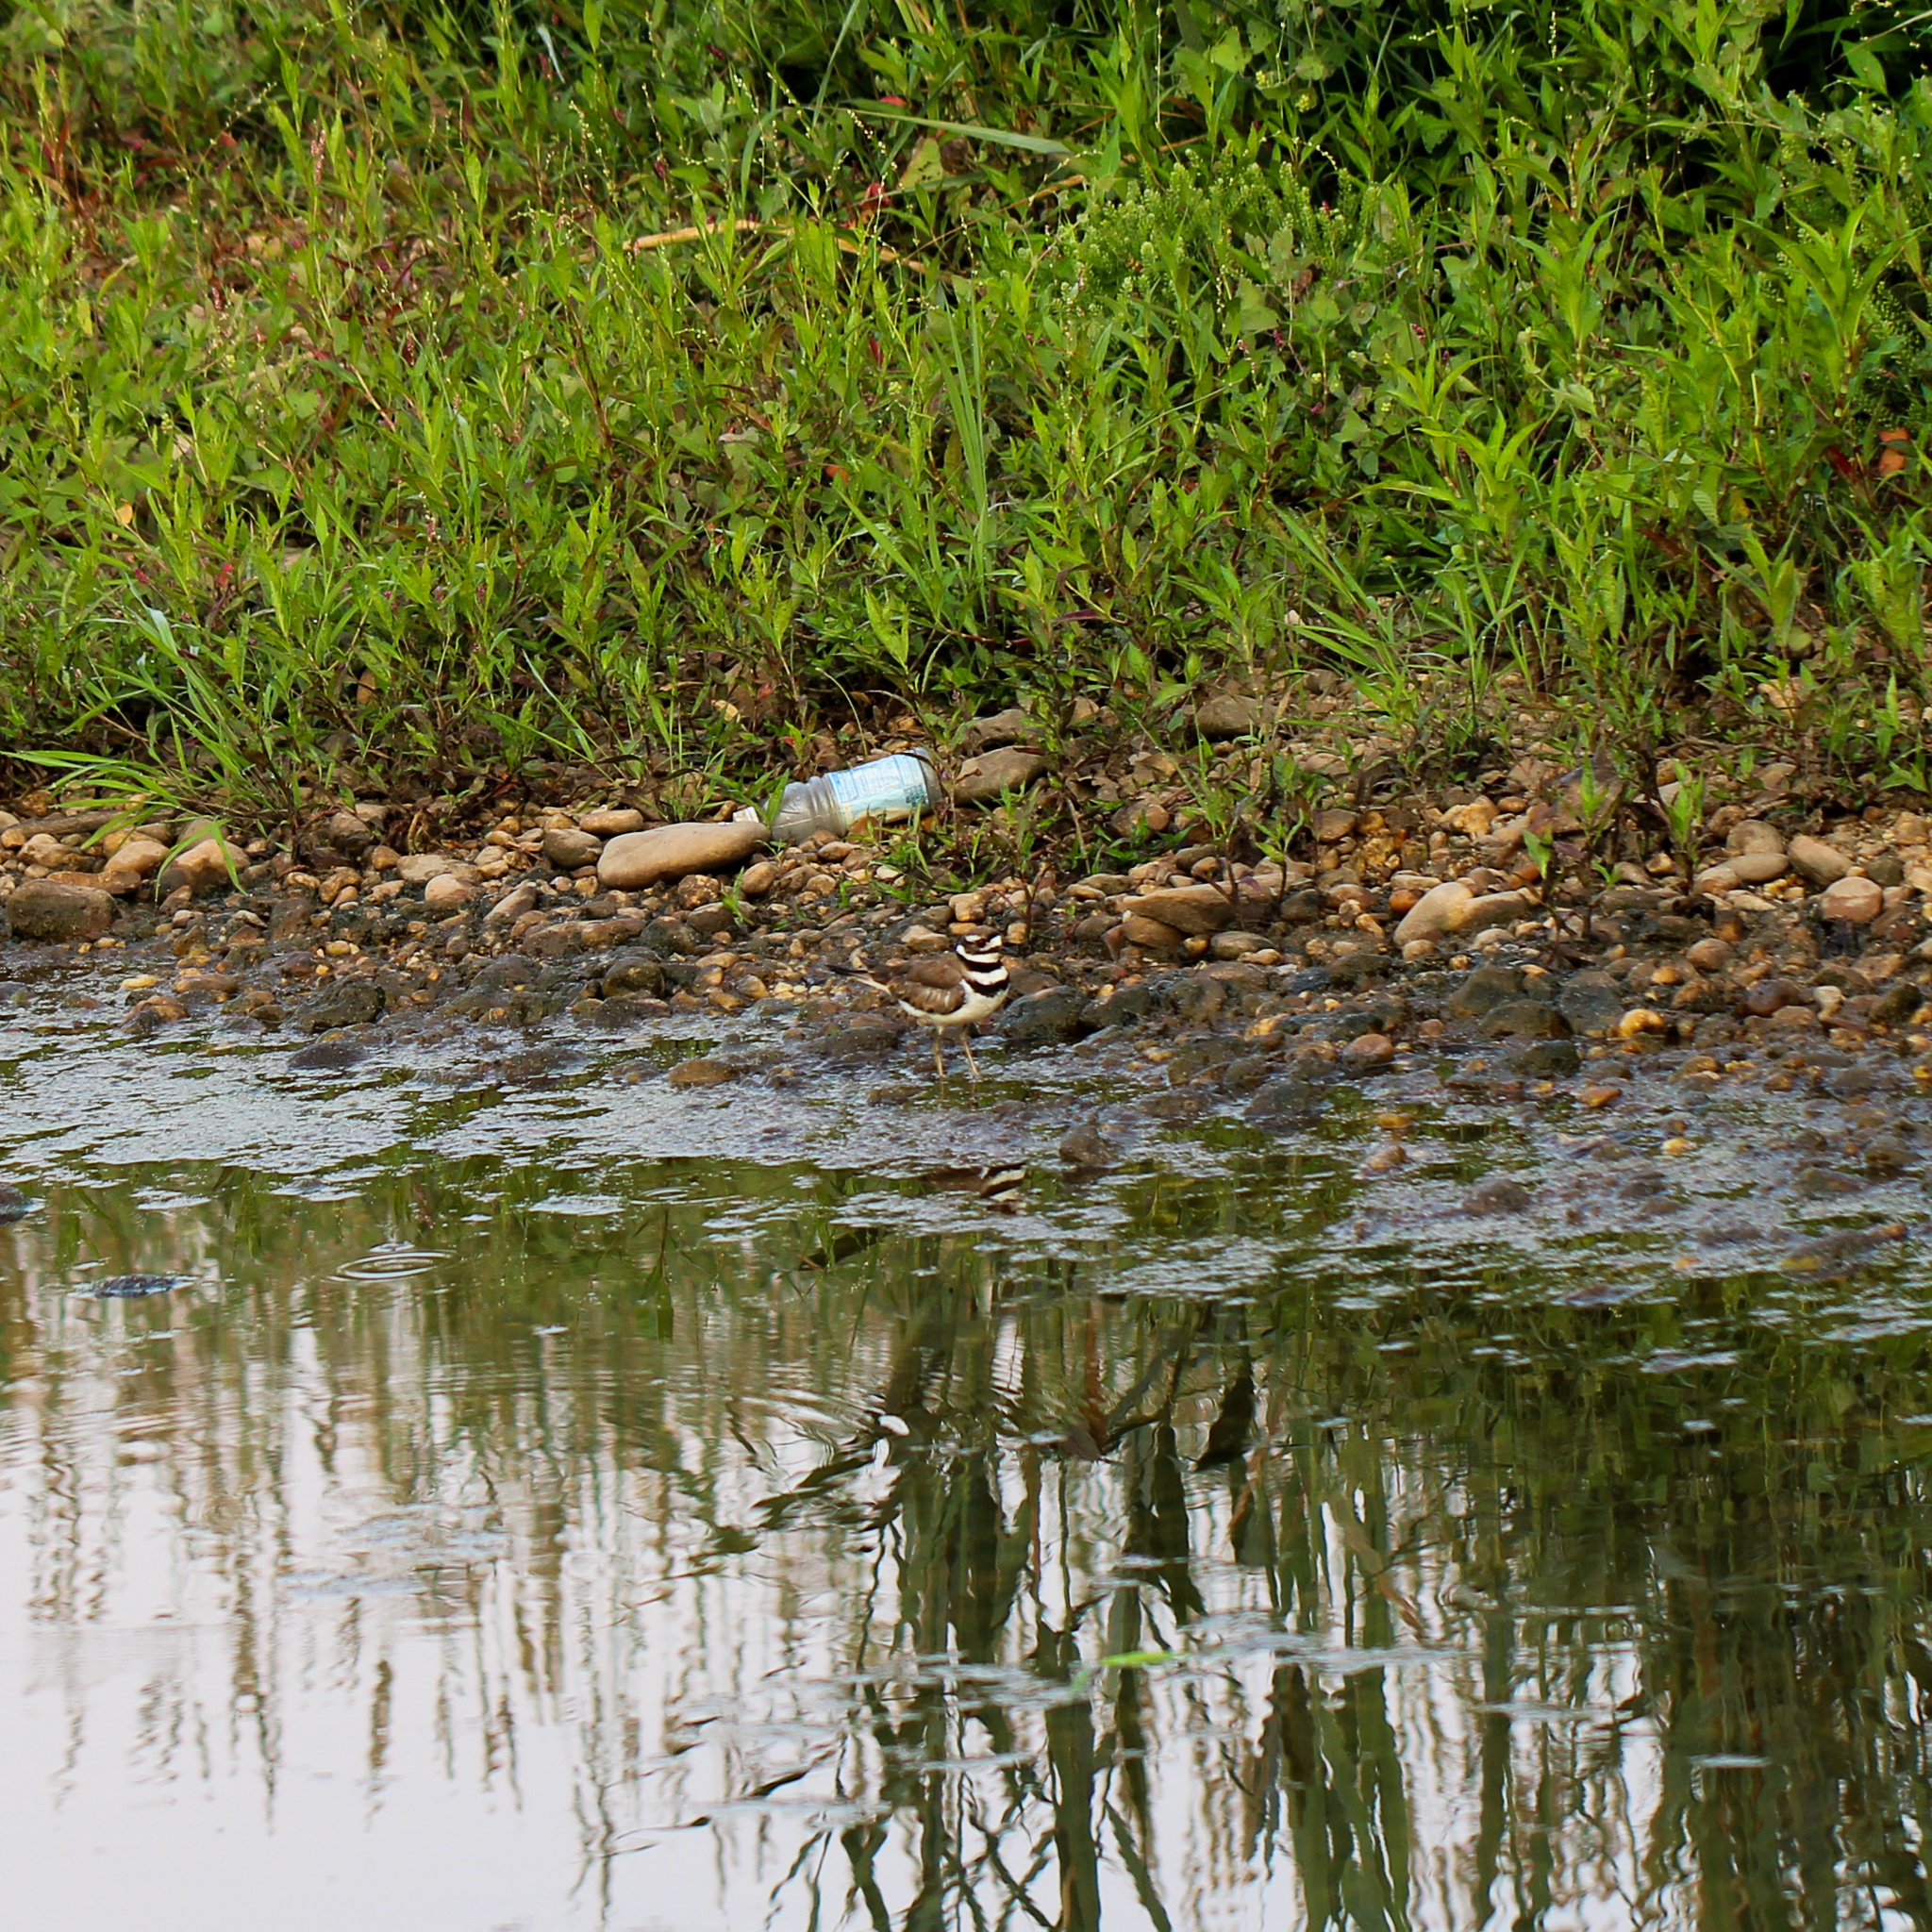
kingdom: Animalia
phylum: Chordata
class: Aves
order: Charadriiformes
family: Charadriidae
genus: Charadrius
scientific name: Charadrius vociferus
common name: Killdeer
